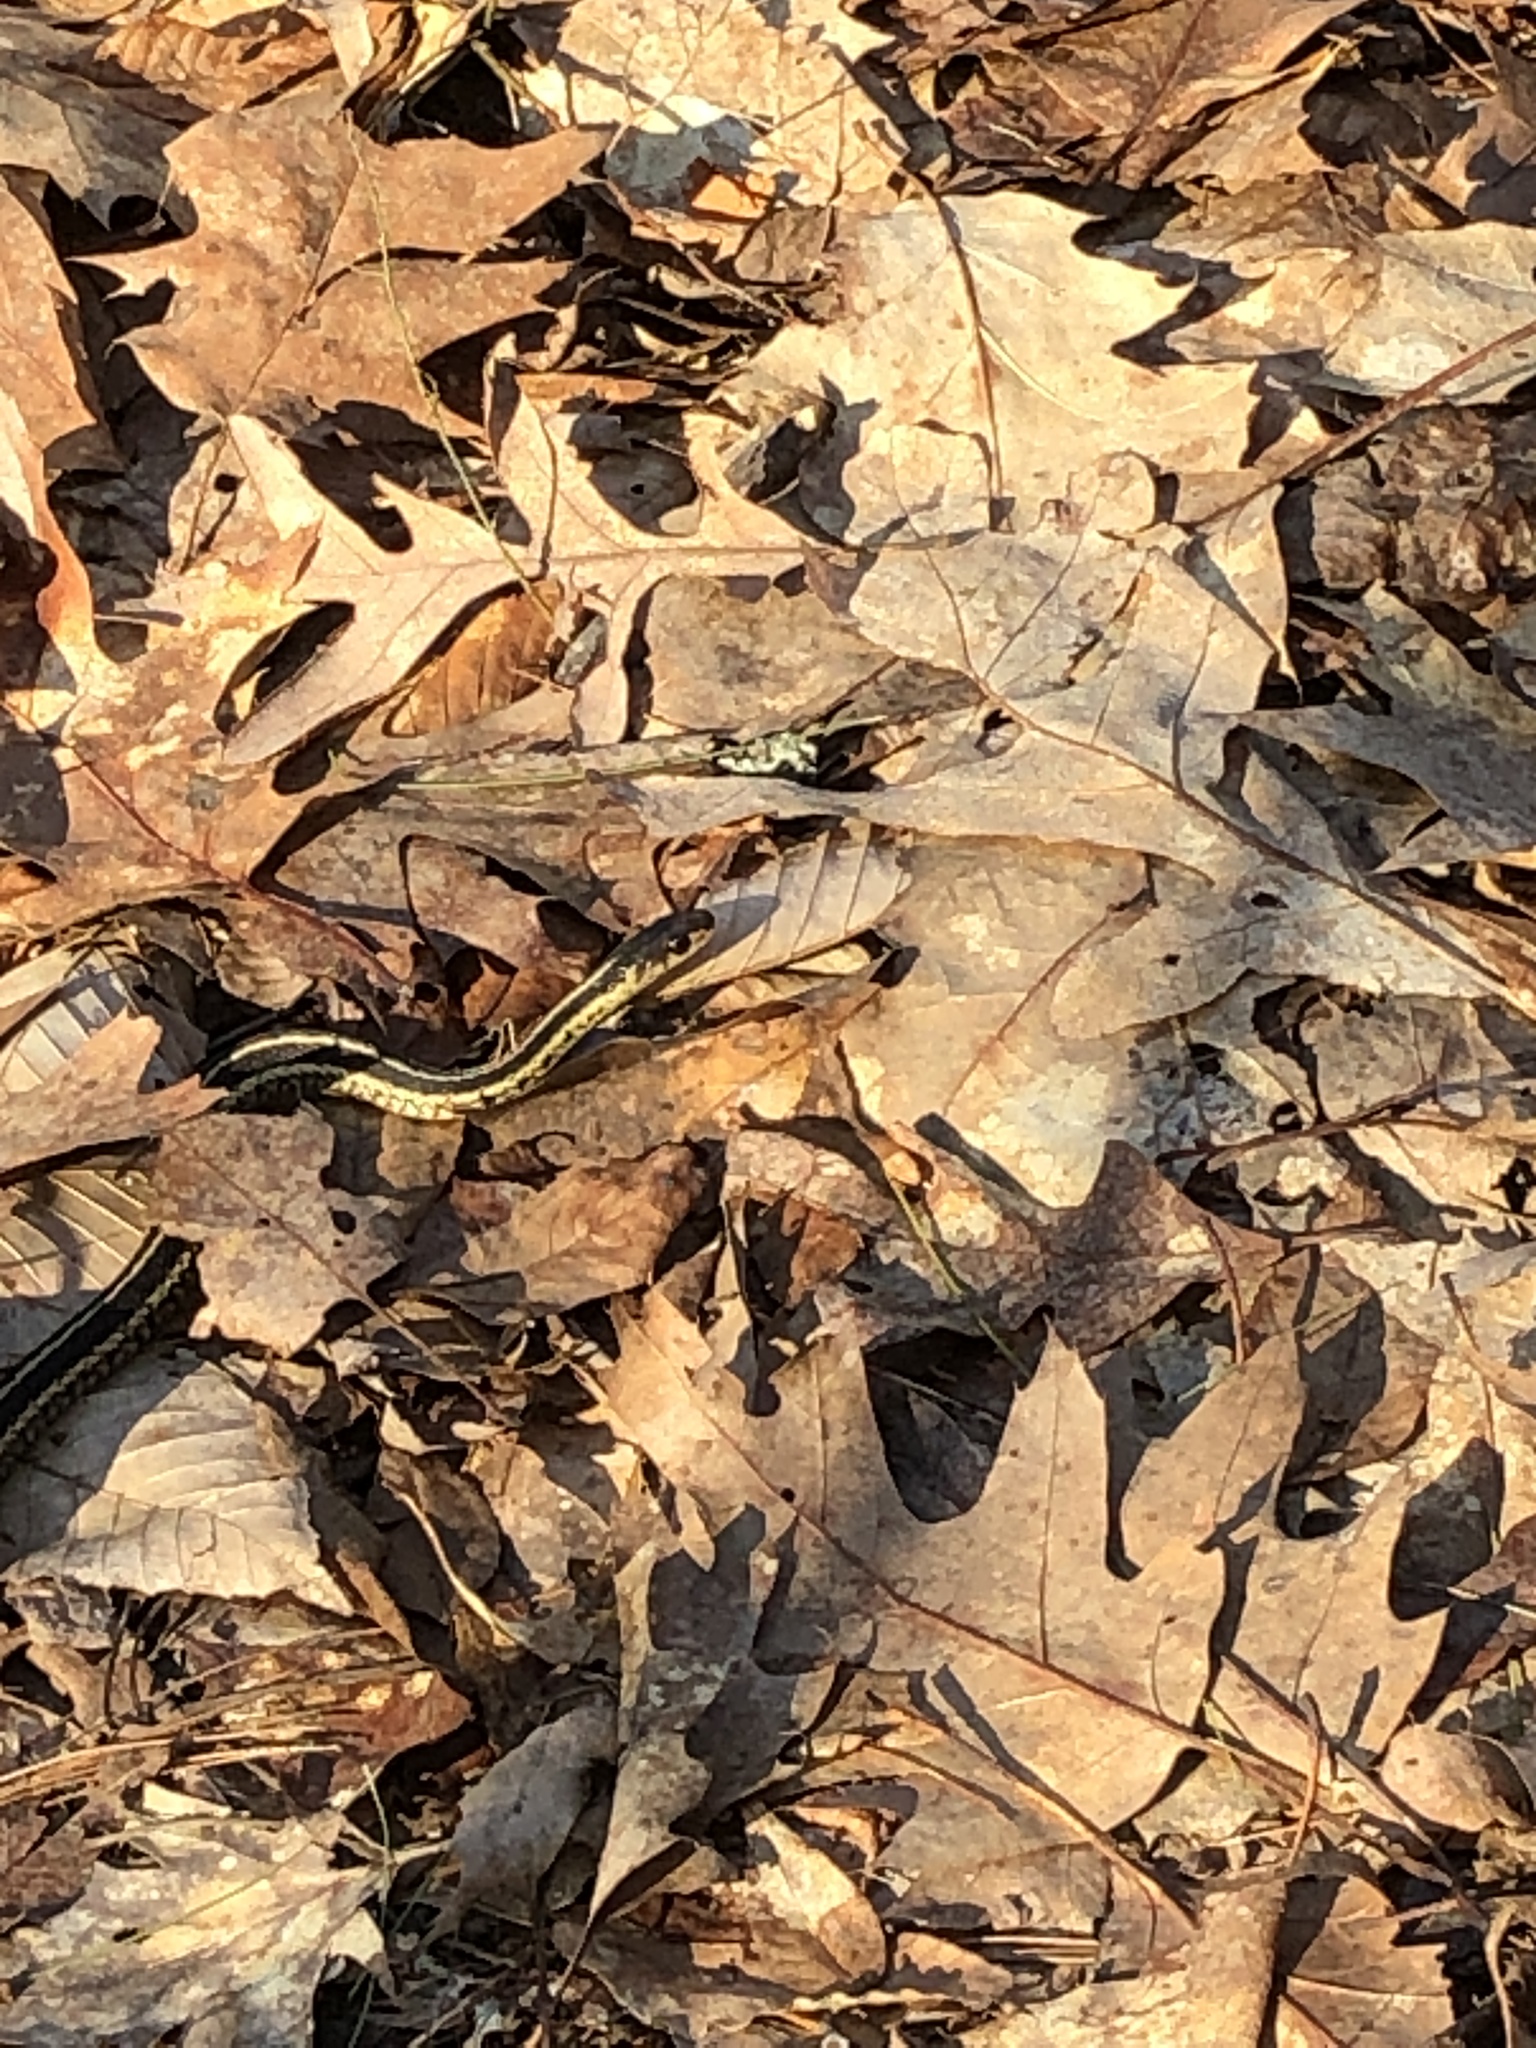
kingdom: Animalia
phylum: Chordata
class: Squamata
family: Colubridae
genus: Thamnophis
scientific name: Thamnophis sirtalis
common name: Common garter snake
